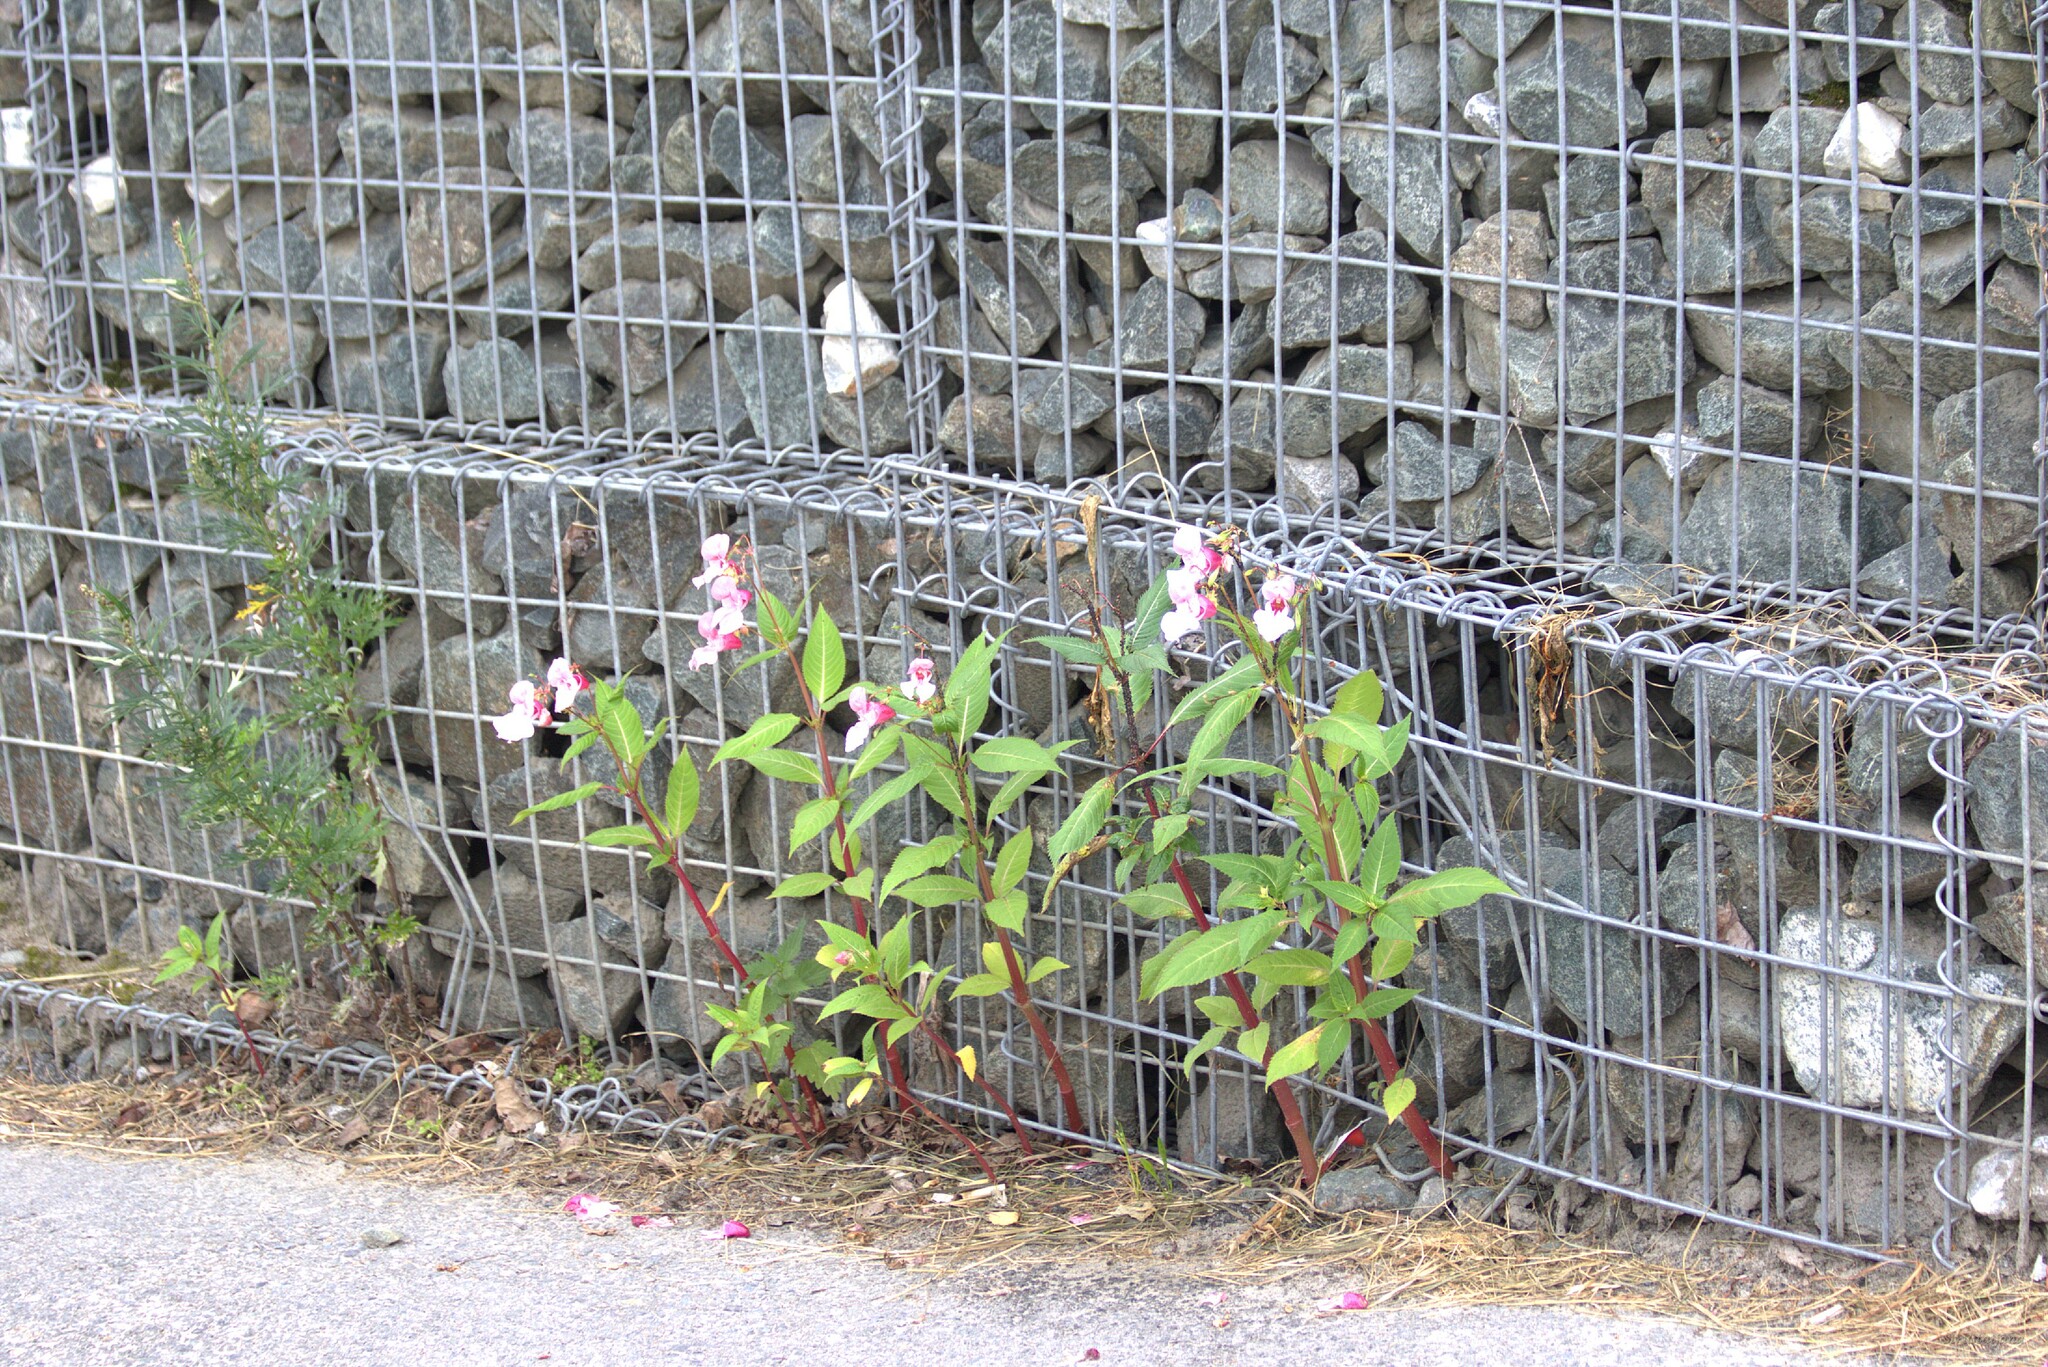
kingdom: Plantae
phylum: Tracheophyta
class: Magnoliopsida
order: Ericales
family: Balsaminaceae
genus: Impatiens
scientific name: Impatiens glandulifera
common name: Himalayan balsam
